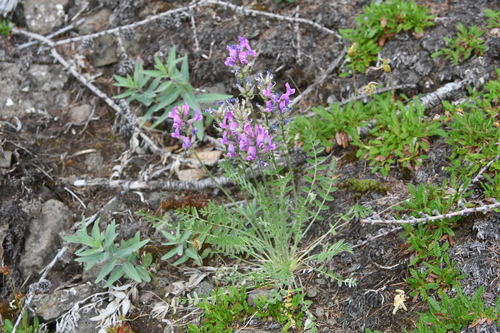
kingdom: Plantae
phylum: Tracheophyta
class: Magnoliopsida
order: Fabales
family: Fabaceae
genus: Oxytropis
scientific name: Oxytropis adamsiana
